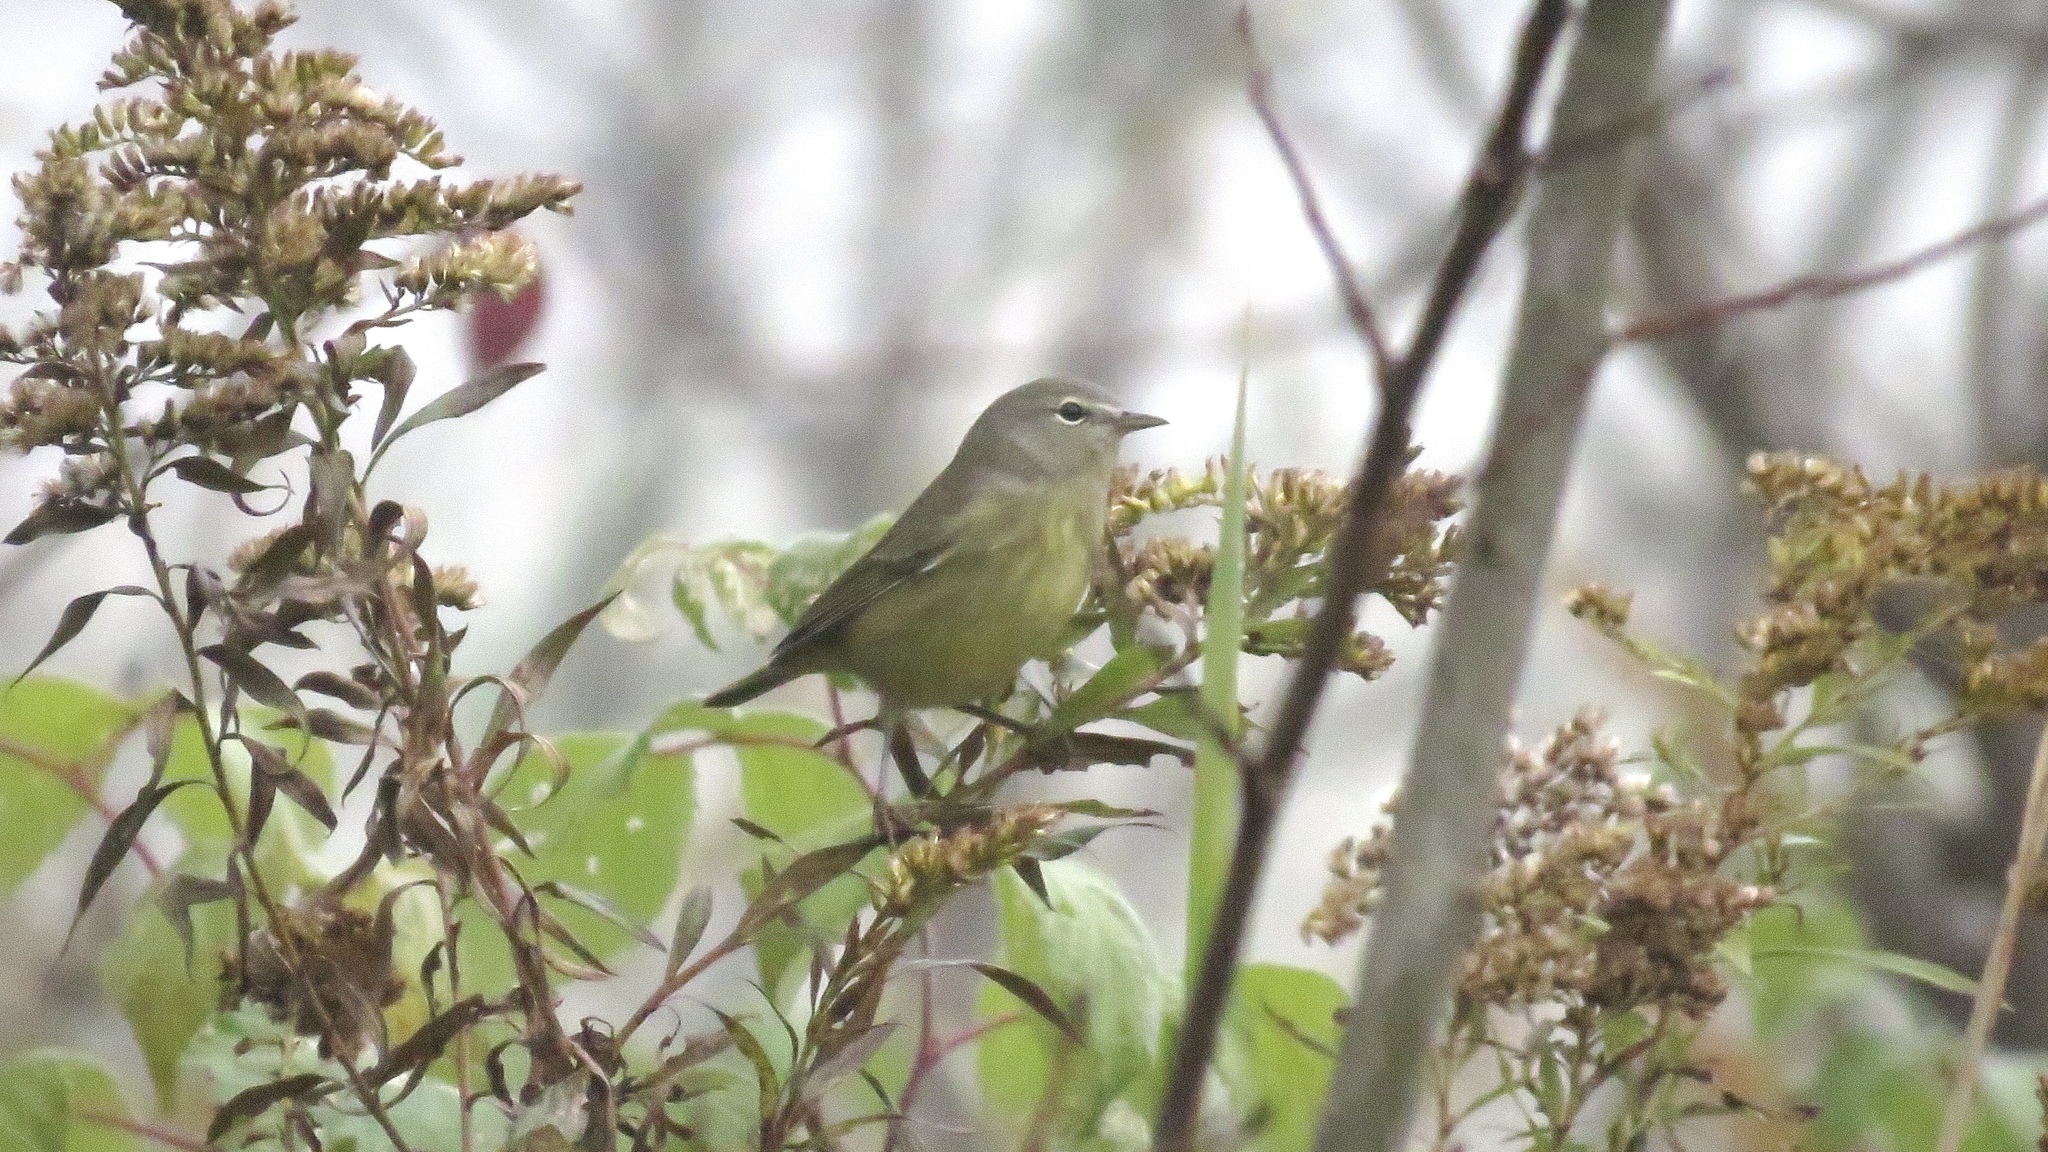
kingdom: Animalia
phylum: Chordata
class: Aves
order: Passeriformes
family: Parulidae
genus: Leiothlypis
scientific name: Leiothlypis celata
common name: Orange-crowned warbler
